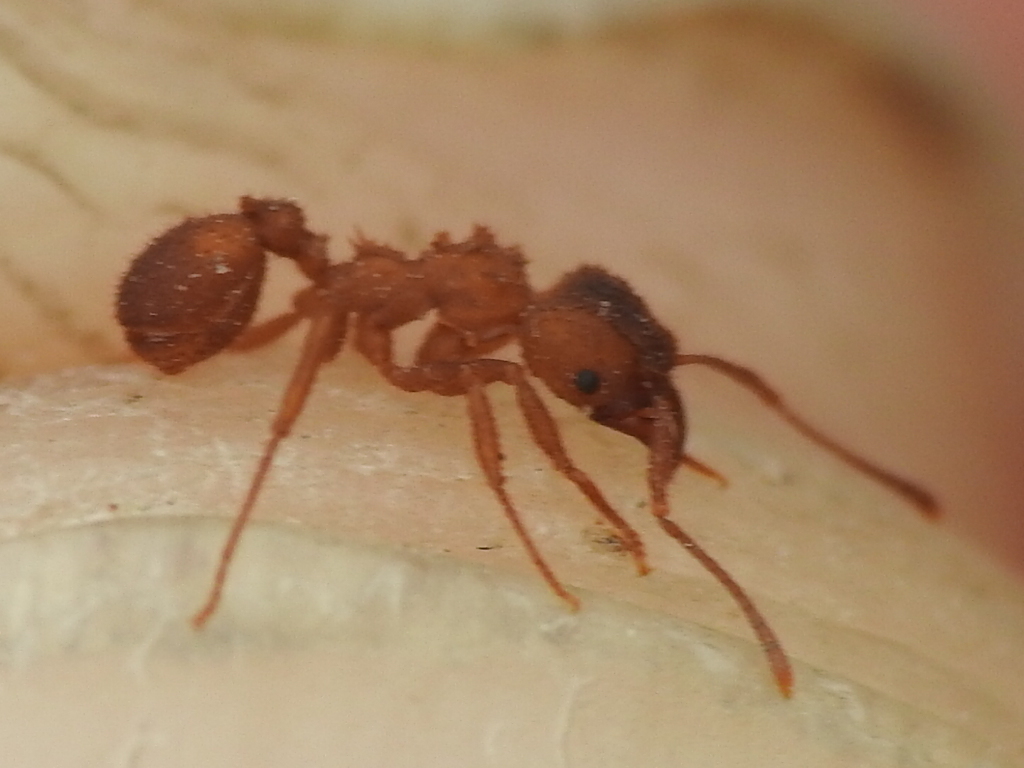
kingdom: Animalia
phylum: Arthropoda
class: Insecta
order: Hymenoptera
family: Formicidae
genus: Trachymyrmex
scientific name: Trachymyrmex septentrionalis
